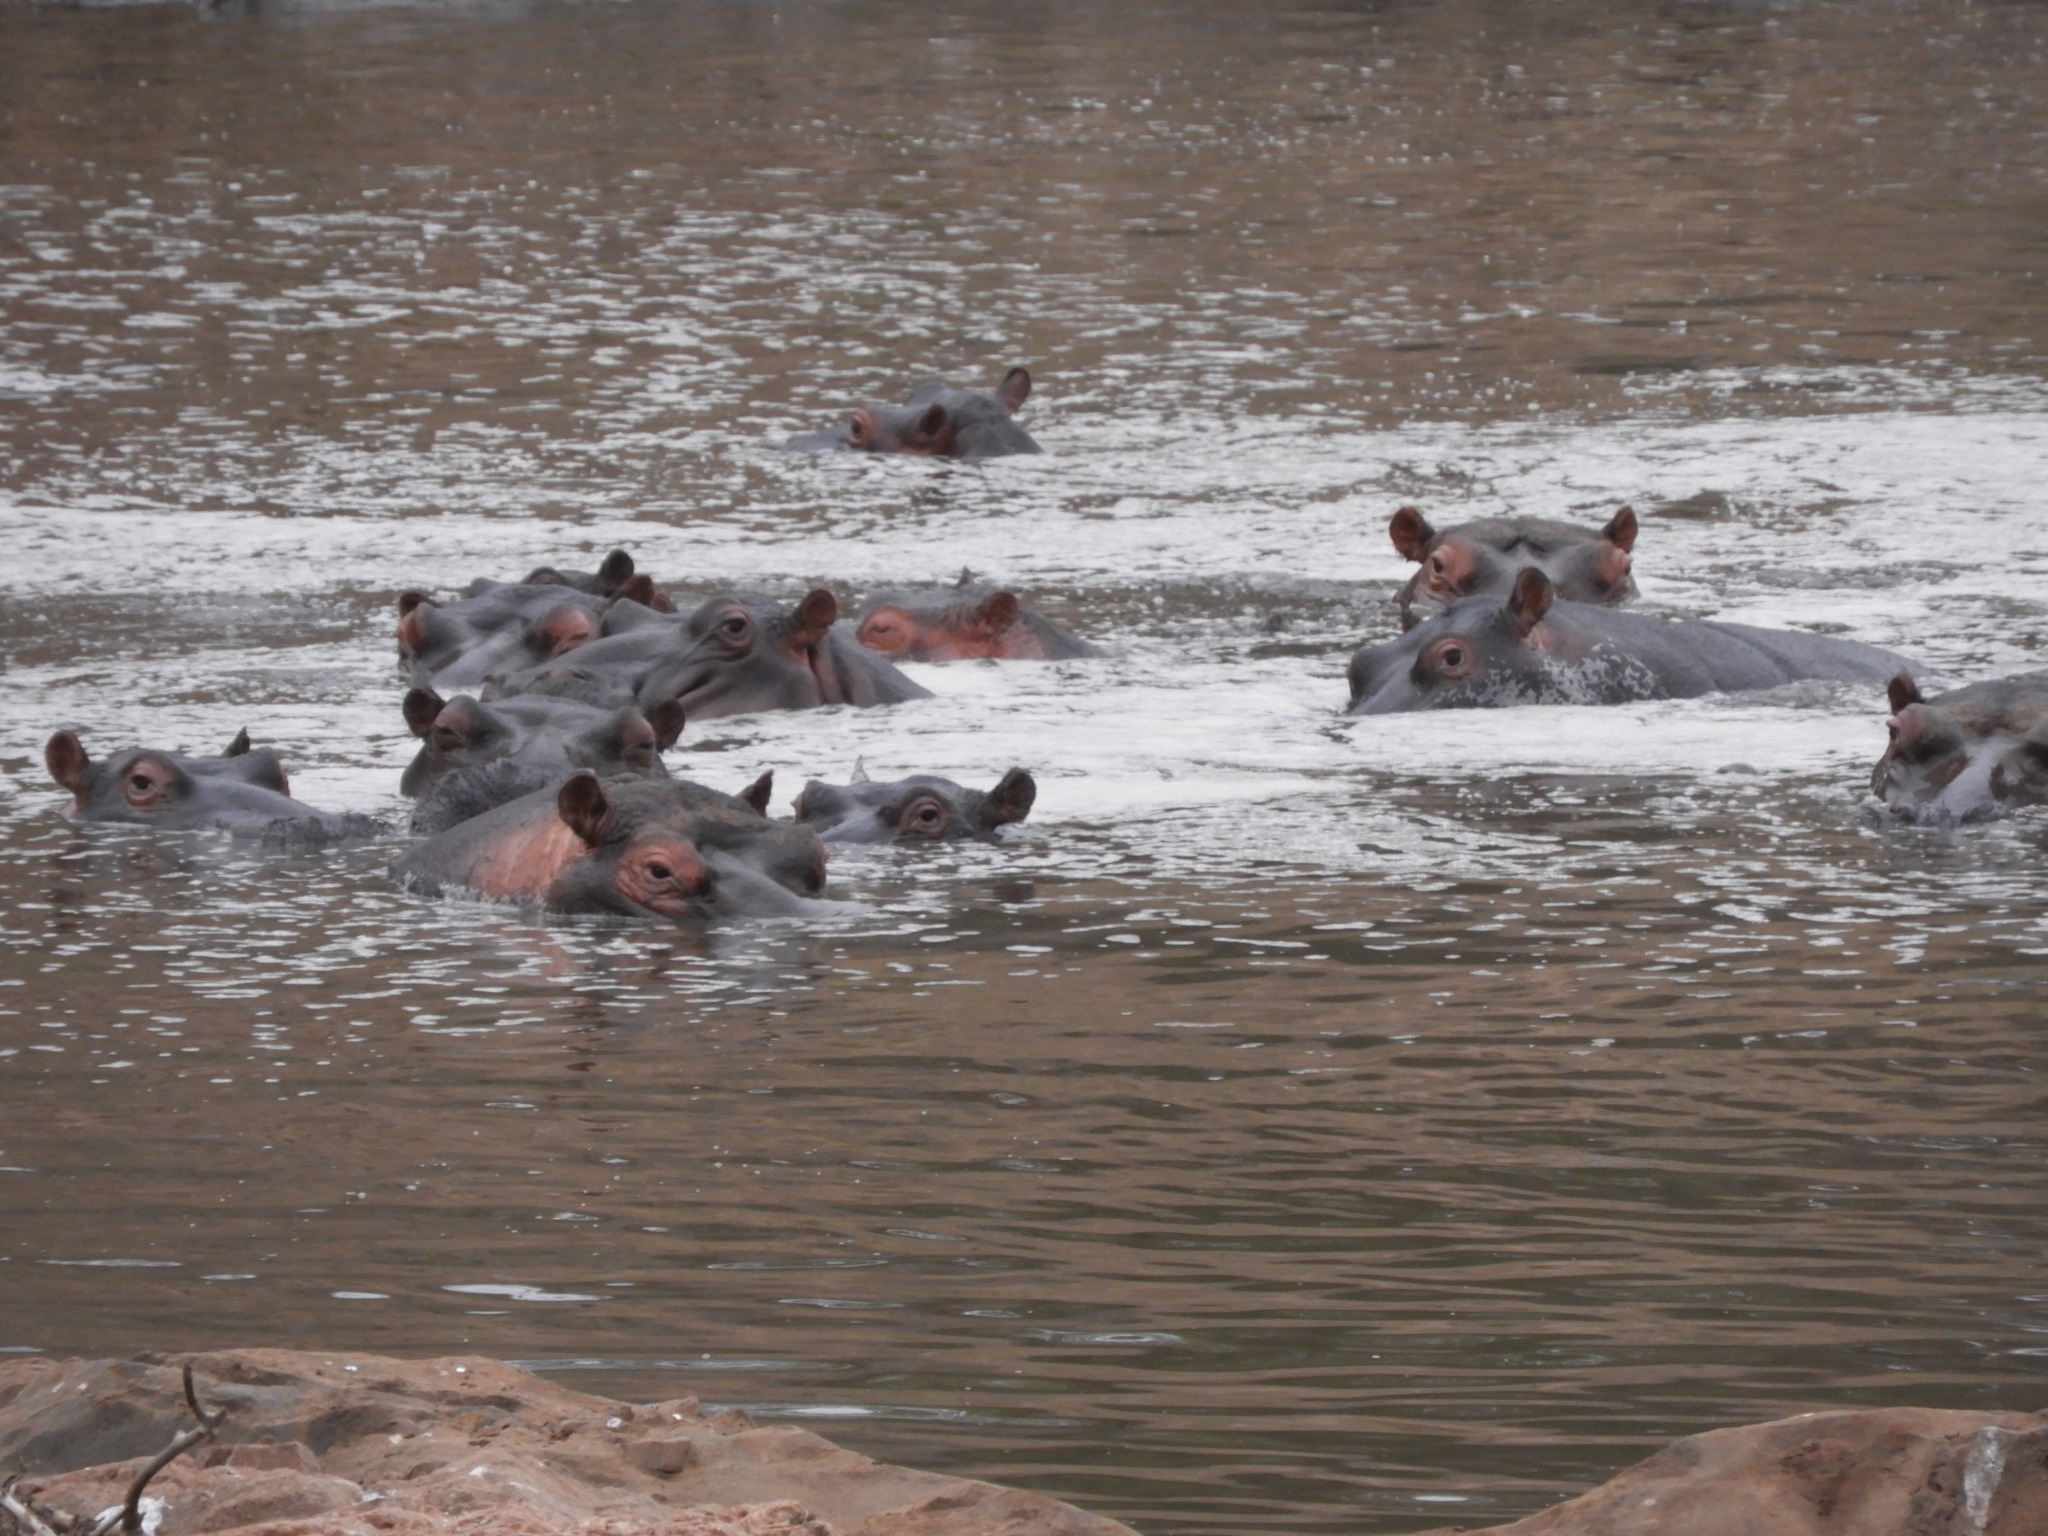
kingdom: Animalia
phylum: Chordata
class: Mammalia
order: Artiodactyla
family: Hippopotamidae
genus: Hippopotamus
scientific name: Hippopotamus amphibius
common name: Common hippopotamus
